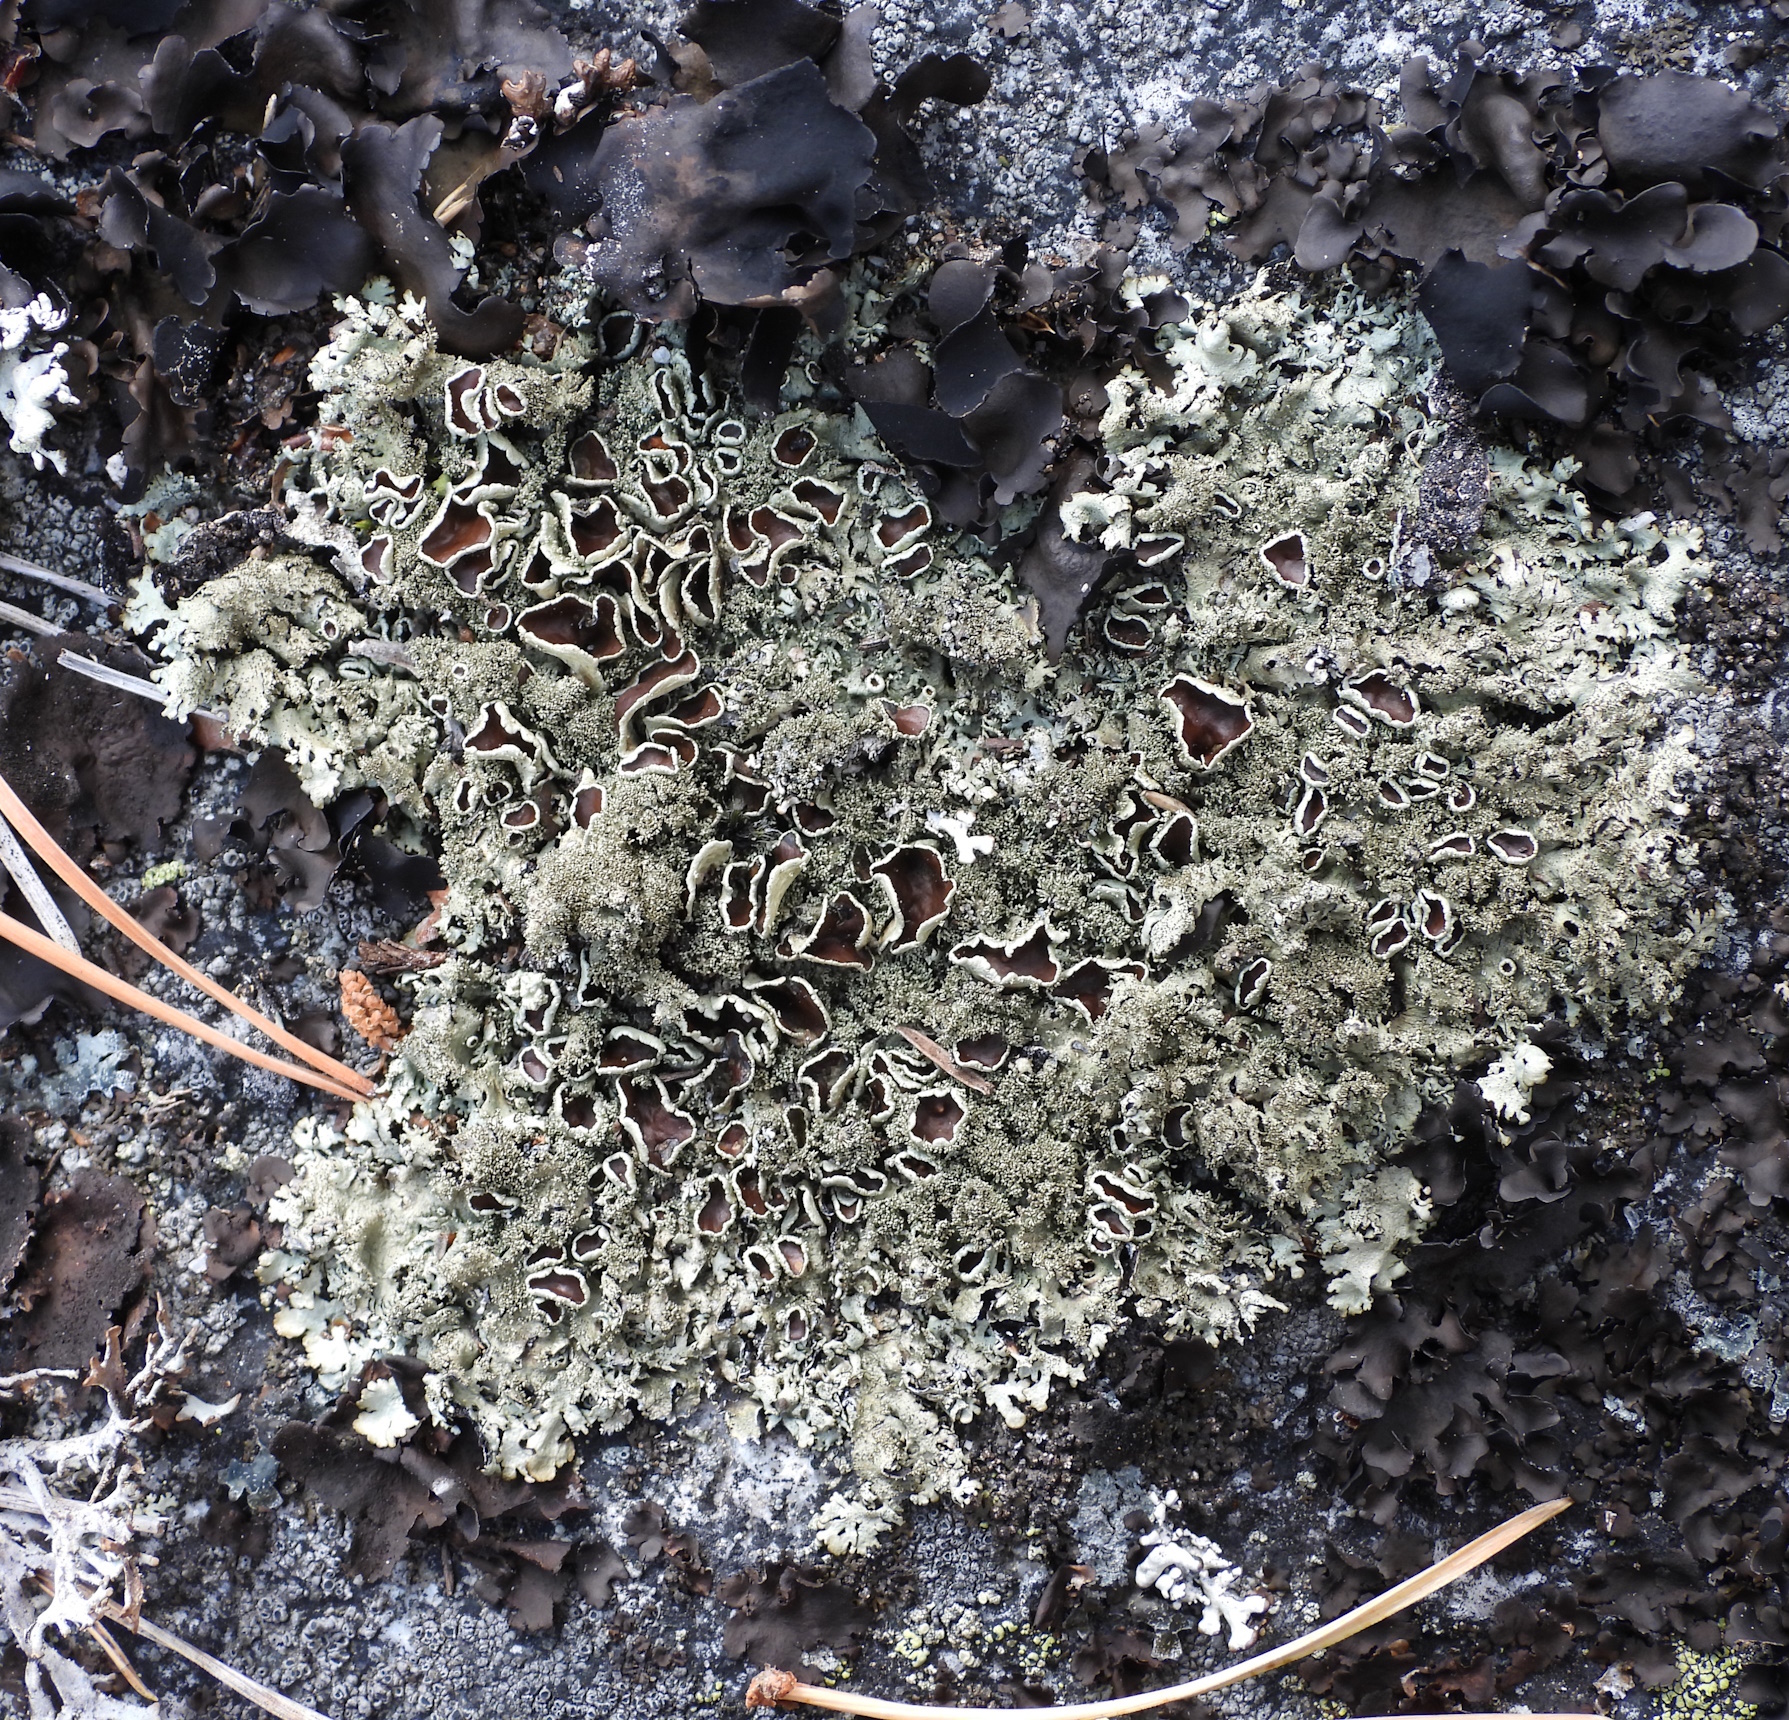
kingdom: Fungi
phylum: Ascomycota
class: Lecanoromycetes
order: Lecanorales
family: Parmeliaceae
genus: Xanthoparmelia
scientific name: Xanthoparmelia conspersa
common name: Peppered rock shield
